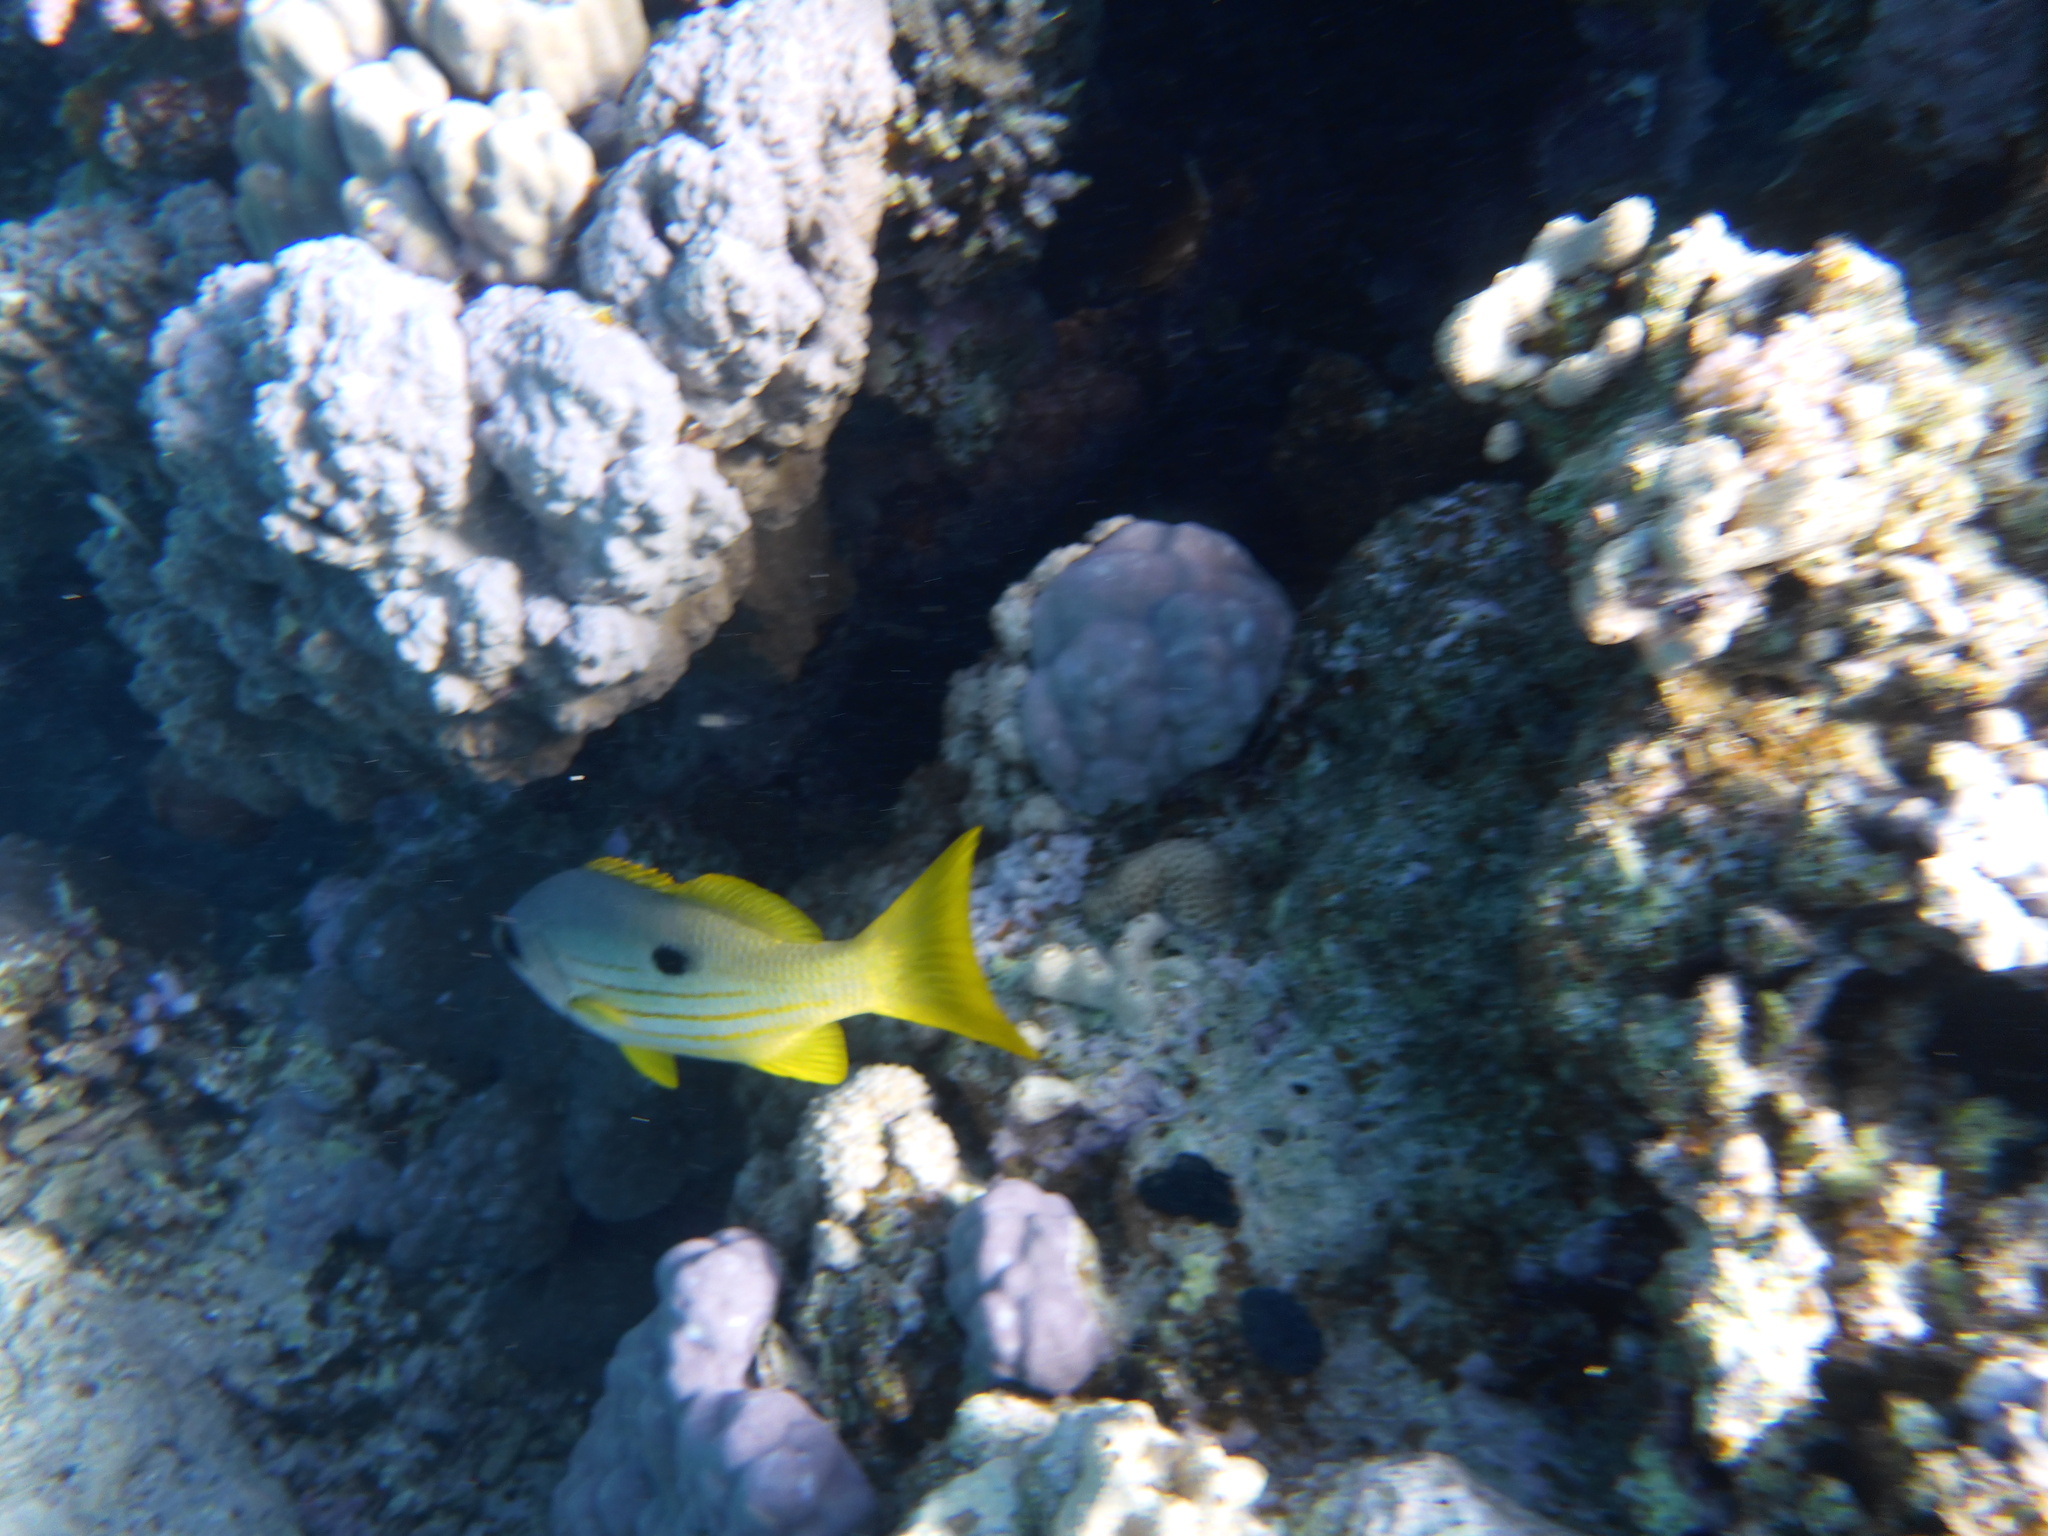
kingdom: Animalia
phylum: Chordata
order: Perciformes
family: Lutjanidae
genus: Lutjanus
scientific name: Lutjanus fulviflamma
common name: Blackspot snapper
